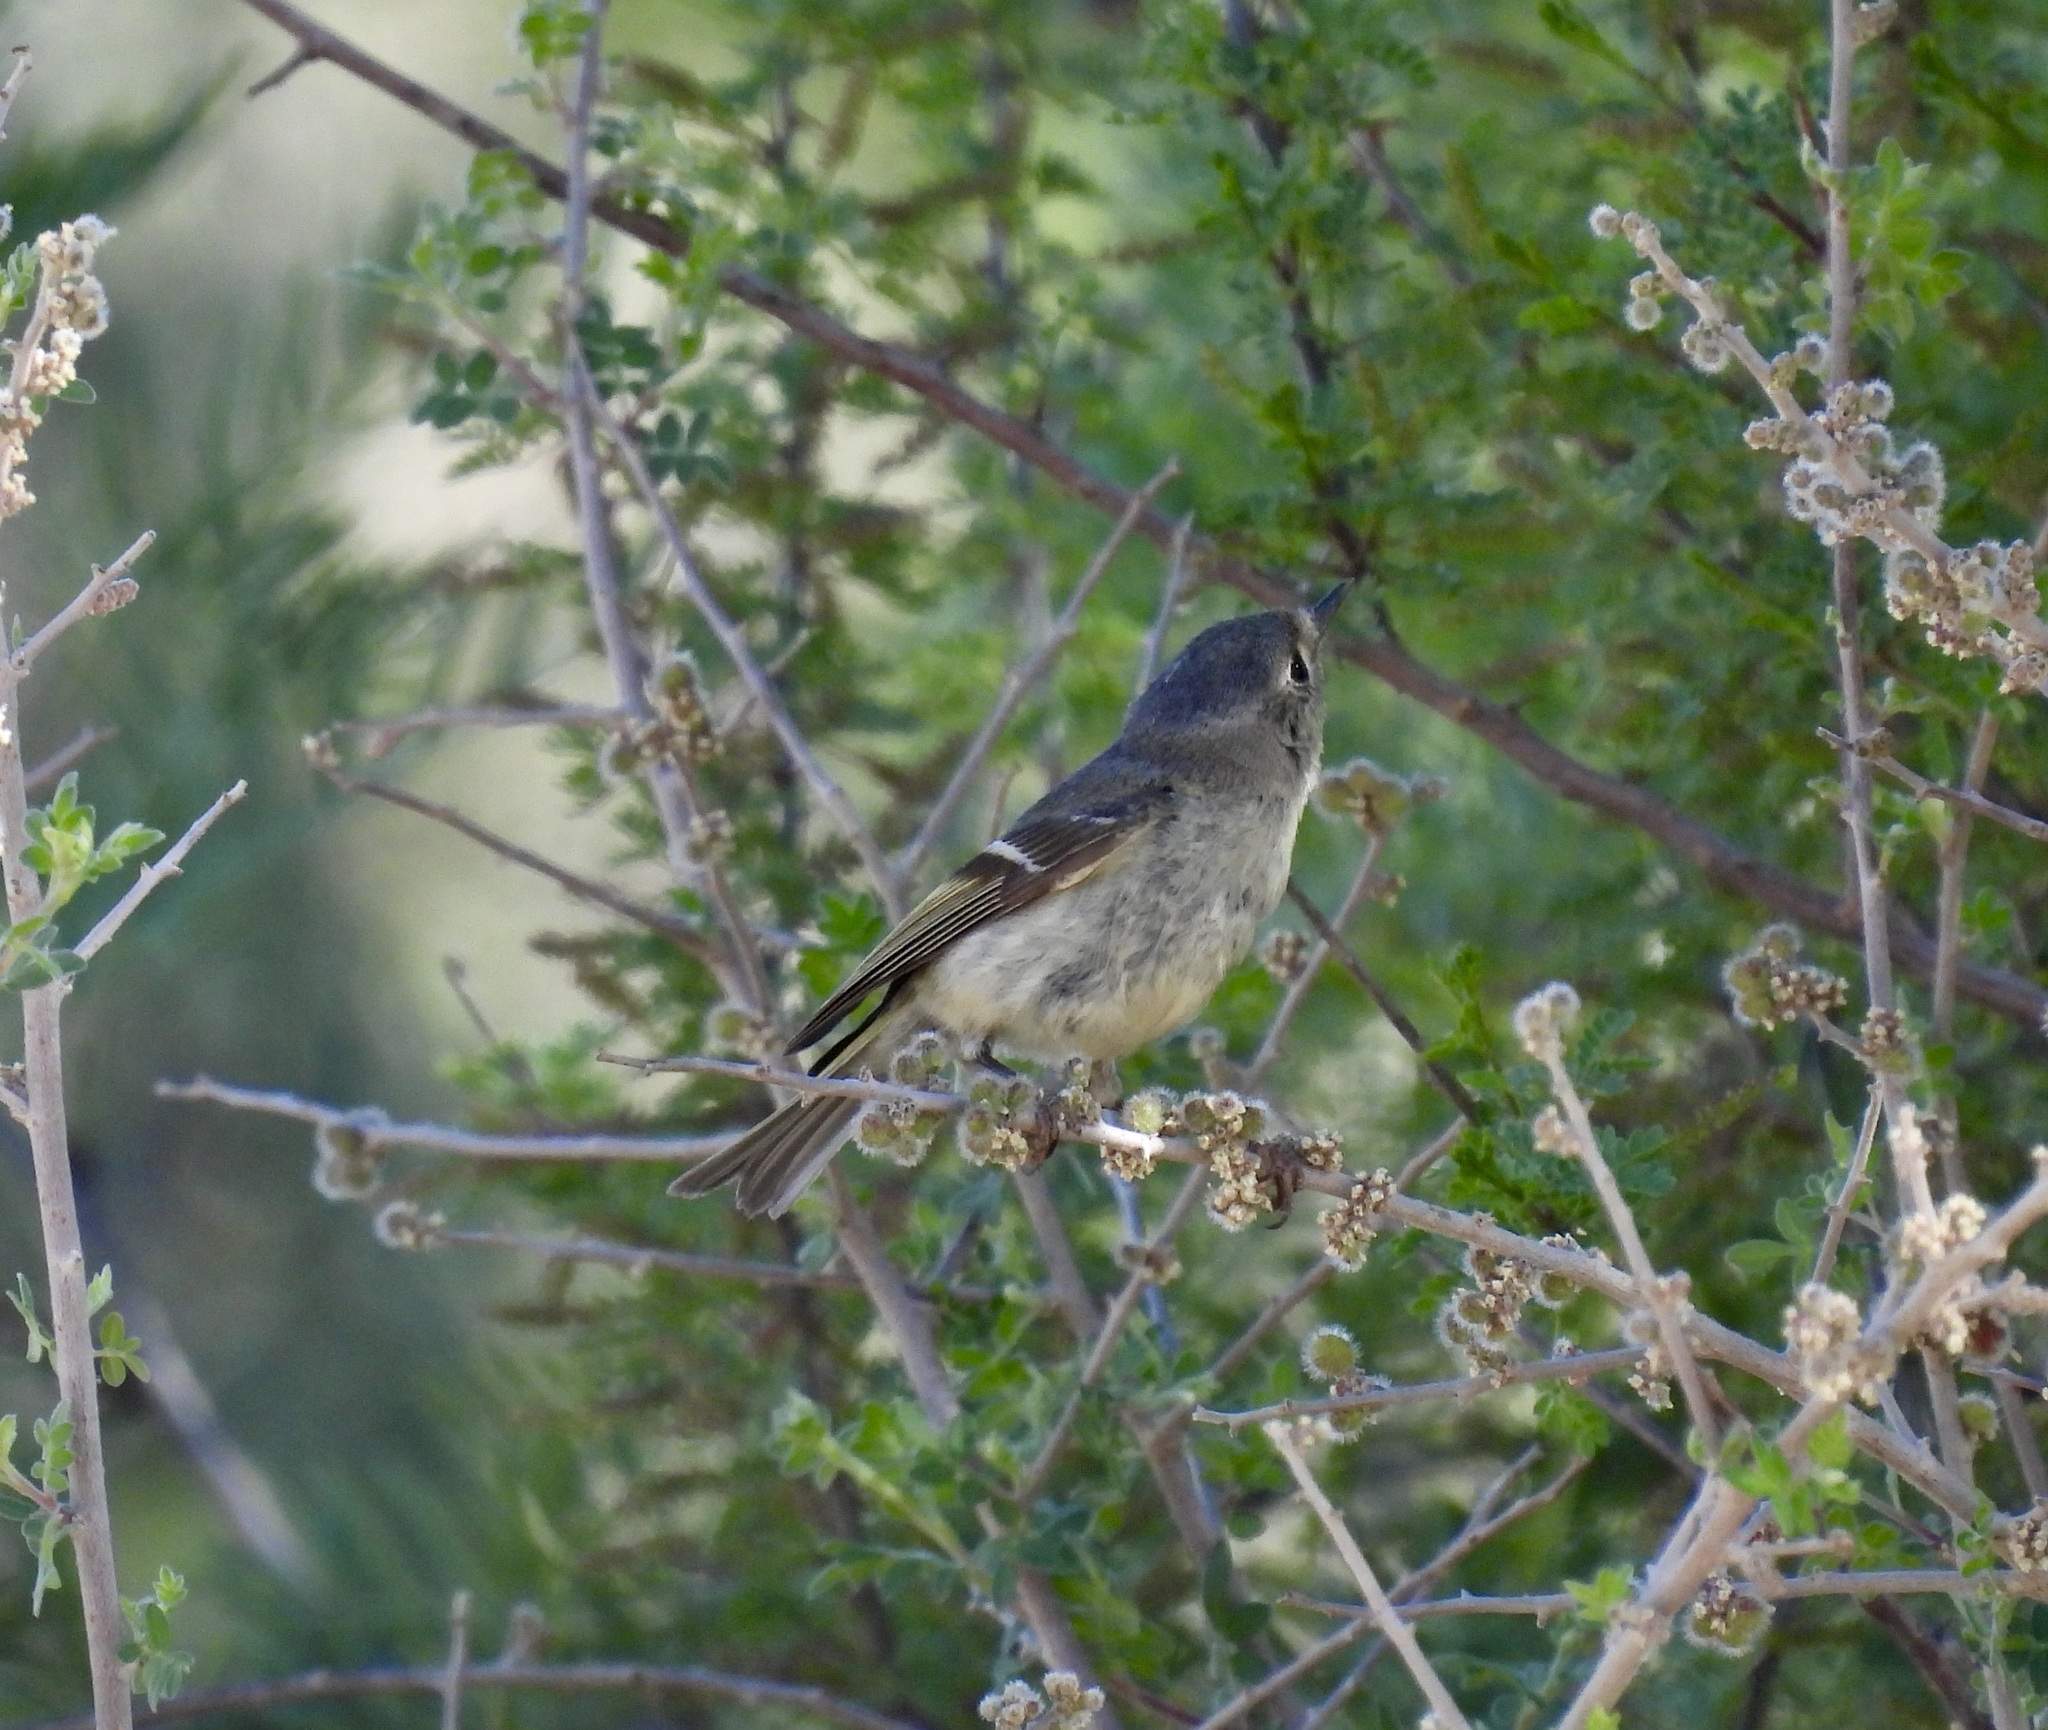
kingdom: Animalia
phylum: Chordata
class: Aves
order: Passeriformes
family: Regulidae
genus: Regulus
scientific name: Regulus calendula
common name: Ruby-crowned kinglet
